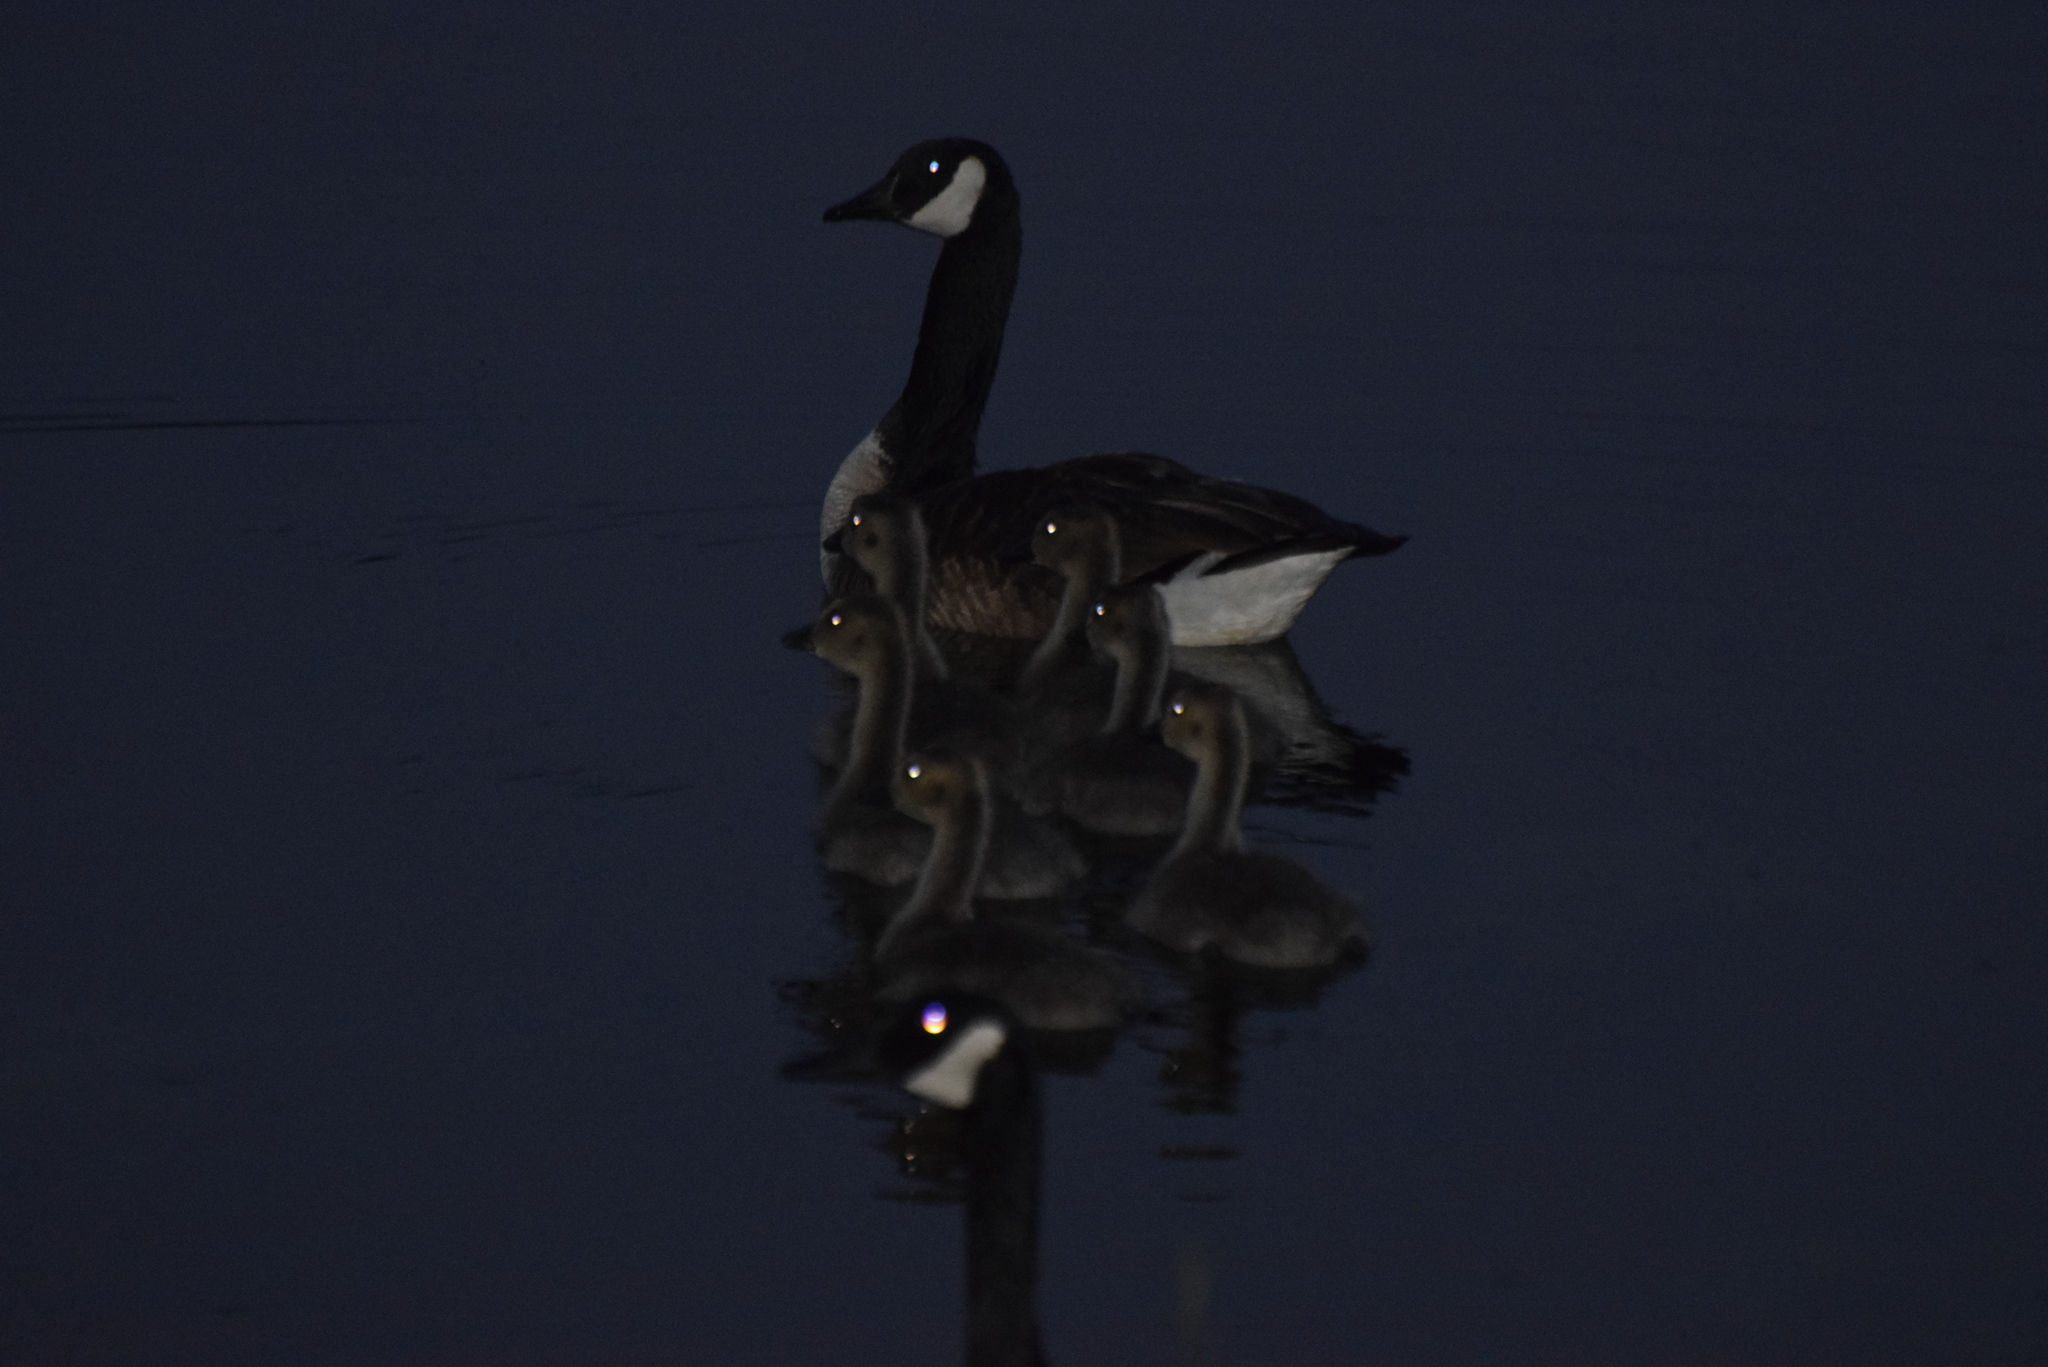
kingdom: Animalia
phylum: Chordata
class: Aves
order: Anseriformes
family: Anatidae
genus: Branta
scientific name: Branta canadensis
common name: Canada goose
